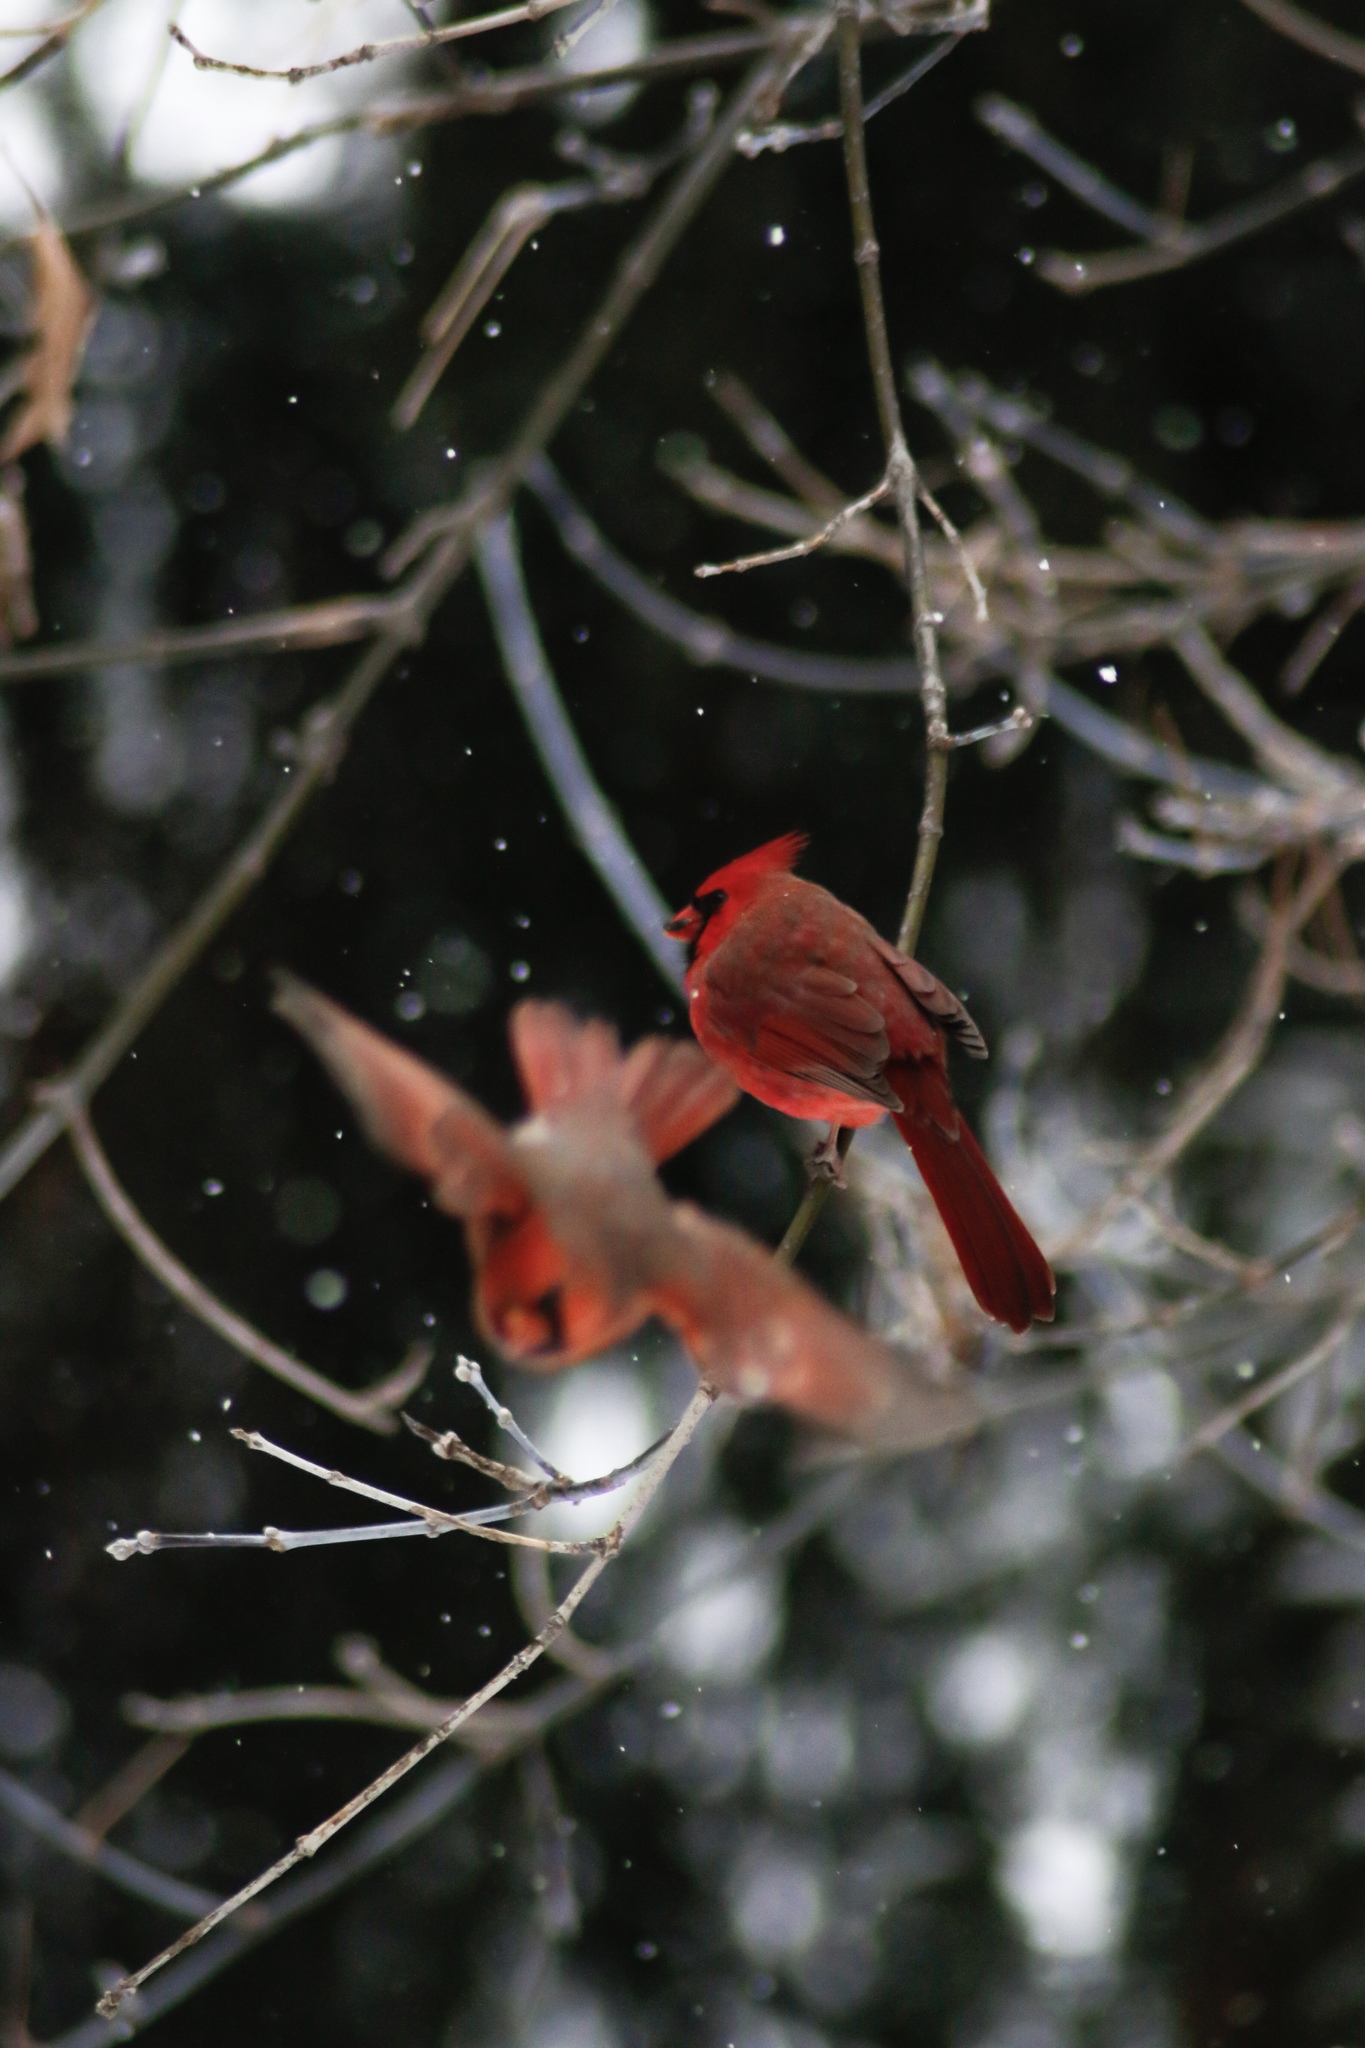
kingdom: Animalia
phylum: Chordata
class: Aves
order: Passeriformes
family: Cardinalidae
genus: Cardinalis
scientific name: Cardinalis cardinalis
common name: Northern cardinal
